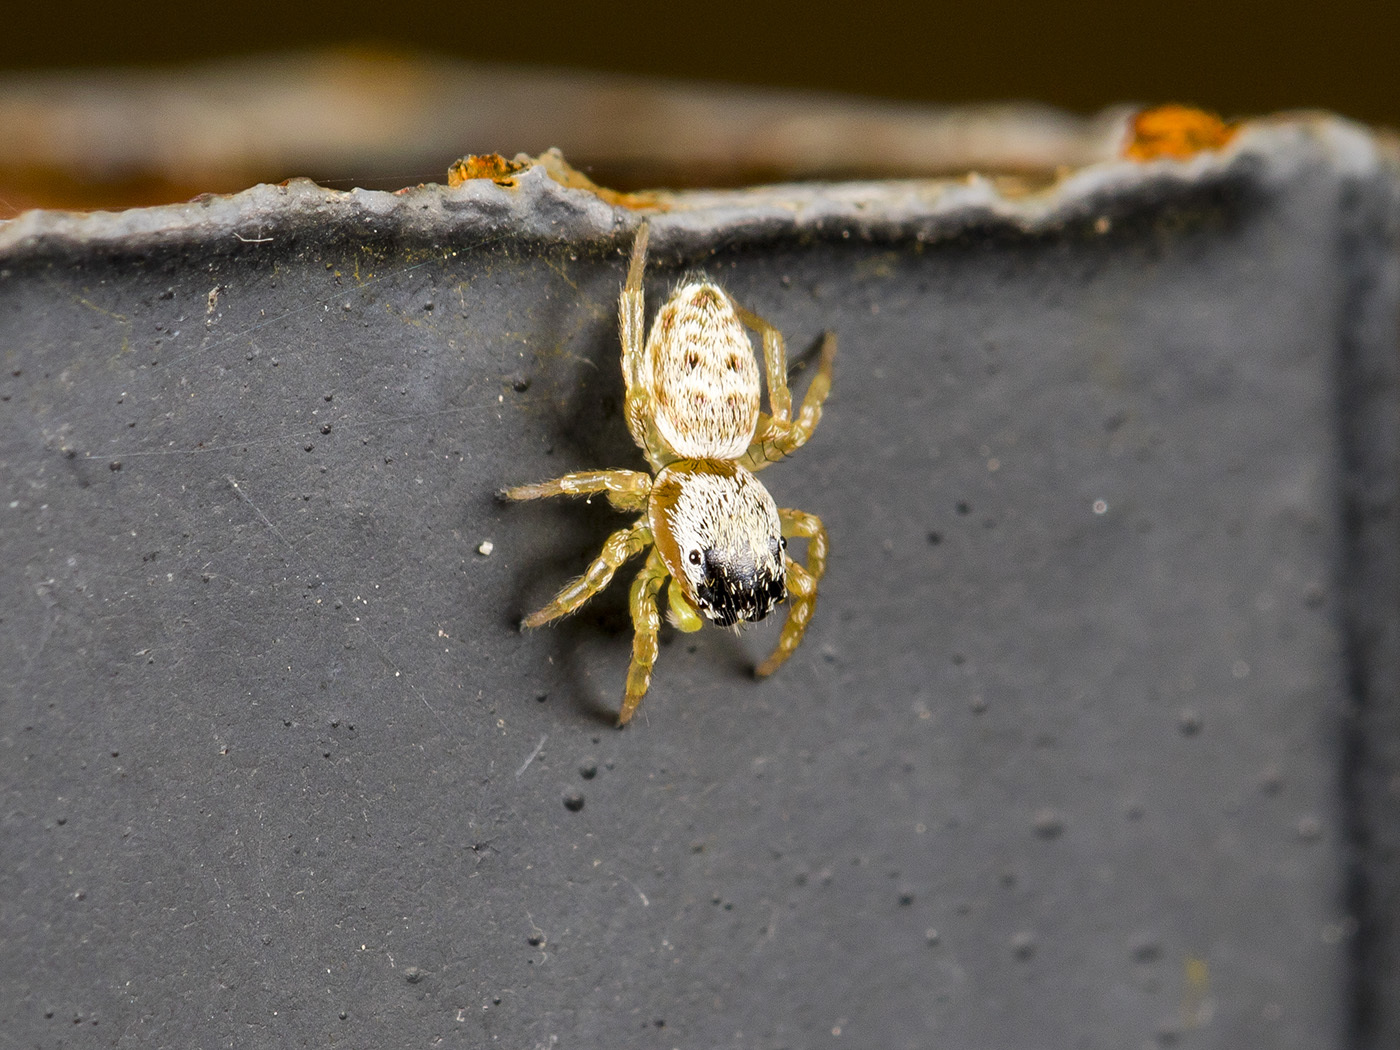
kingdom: Animalia
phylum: Arthropoda
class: Arachnida
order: Araneae
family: Salticidae
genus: Heliophanus
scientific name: Heliophanus potanini
